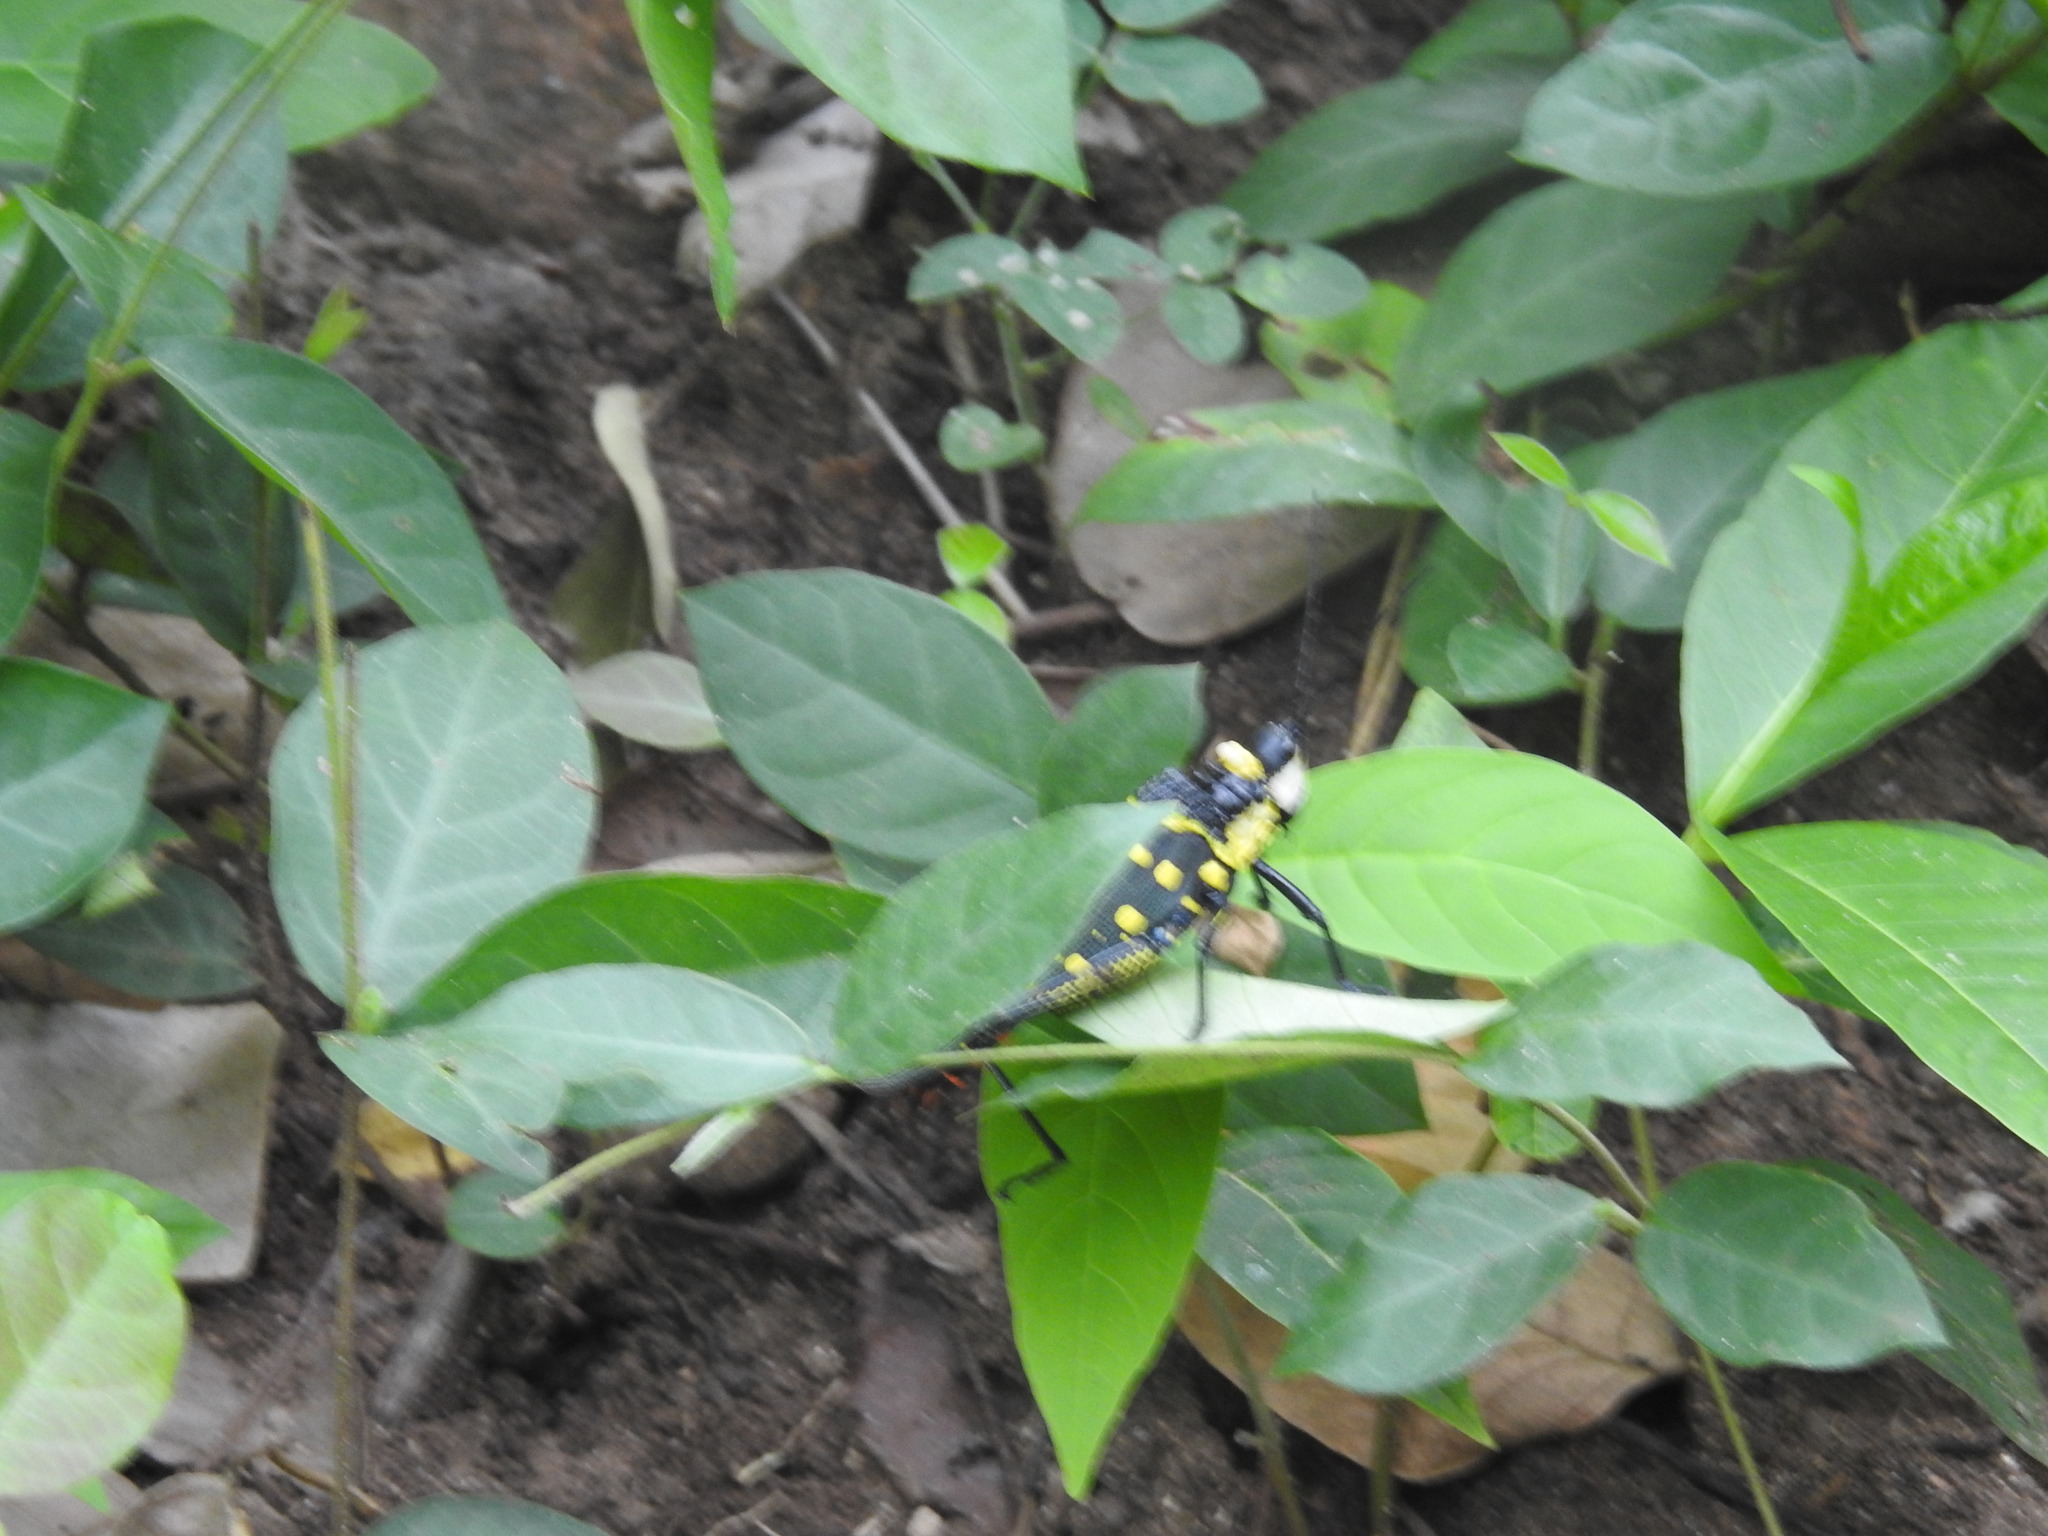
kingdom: Animalia
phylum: Arthropoda
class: Insecta
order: Orthoptera
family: Pyrgomorphidae
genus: Aularches
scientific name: Aularches miliaris
